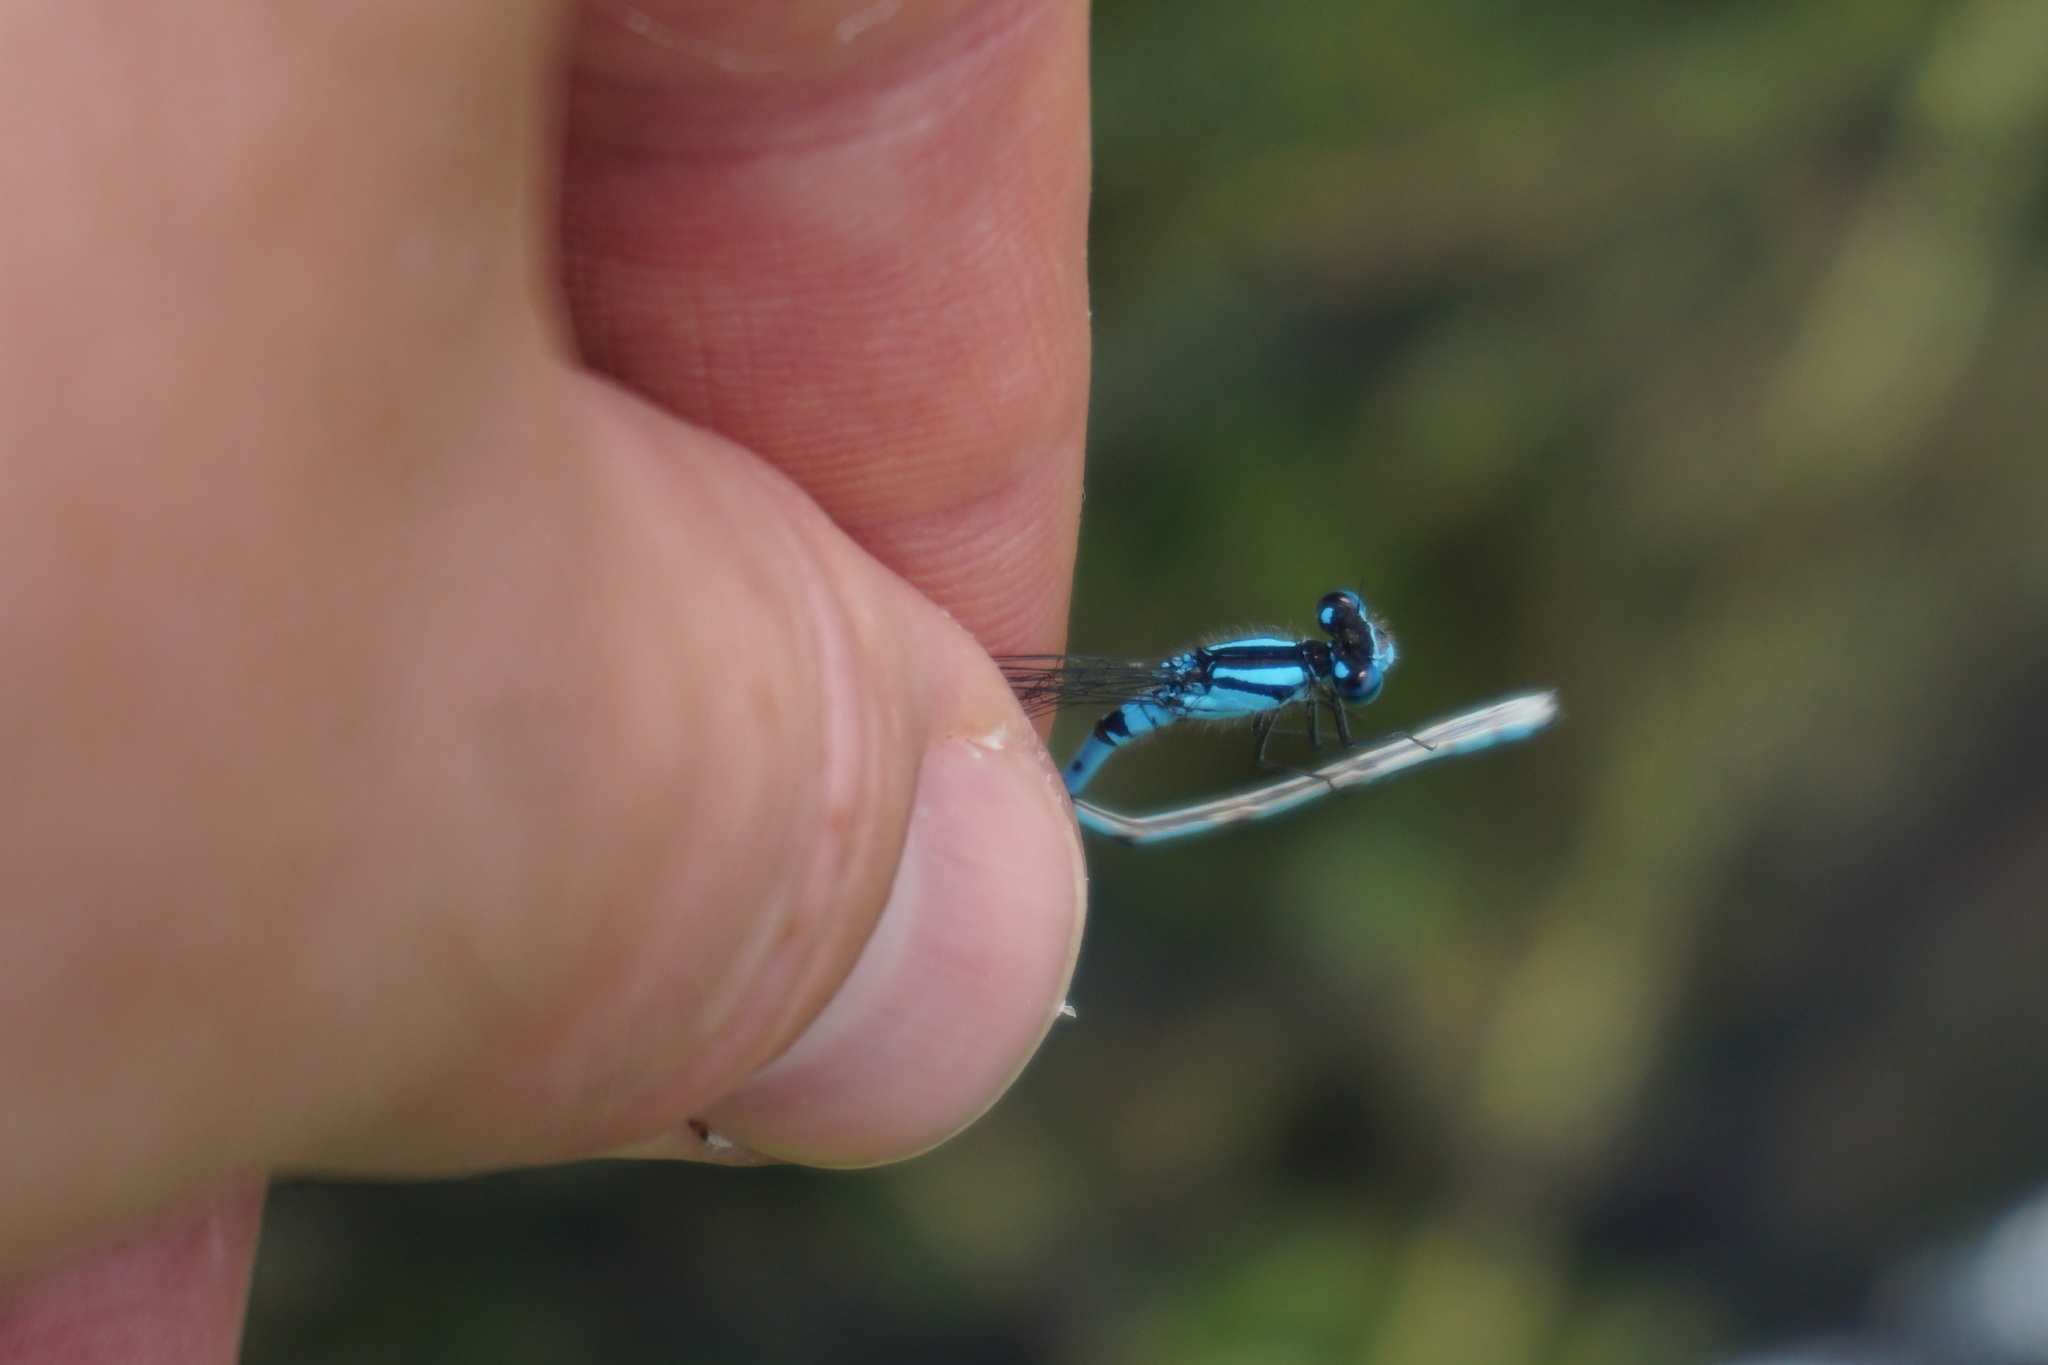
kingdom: Animalia
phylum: Arthropoda
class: Insecta
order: Odonata
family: Coenagrionidae
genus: Enallagma
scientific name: Enallagma cyathigerum
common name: Common blue damselfly
